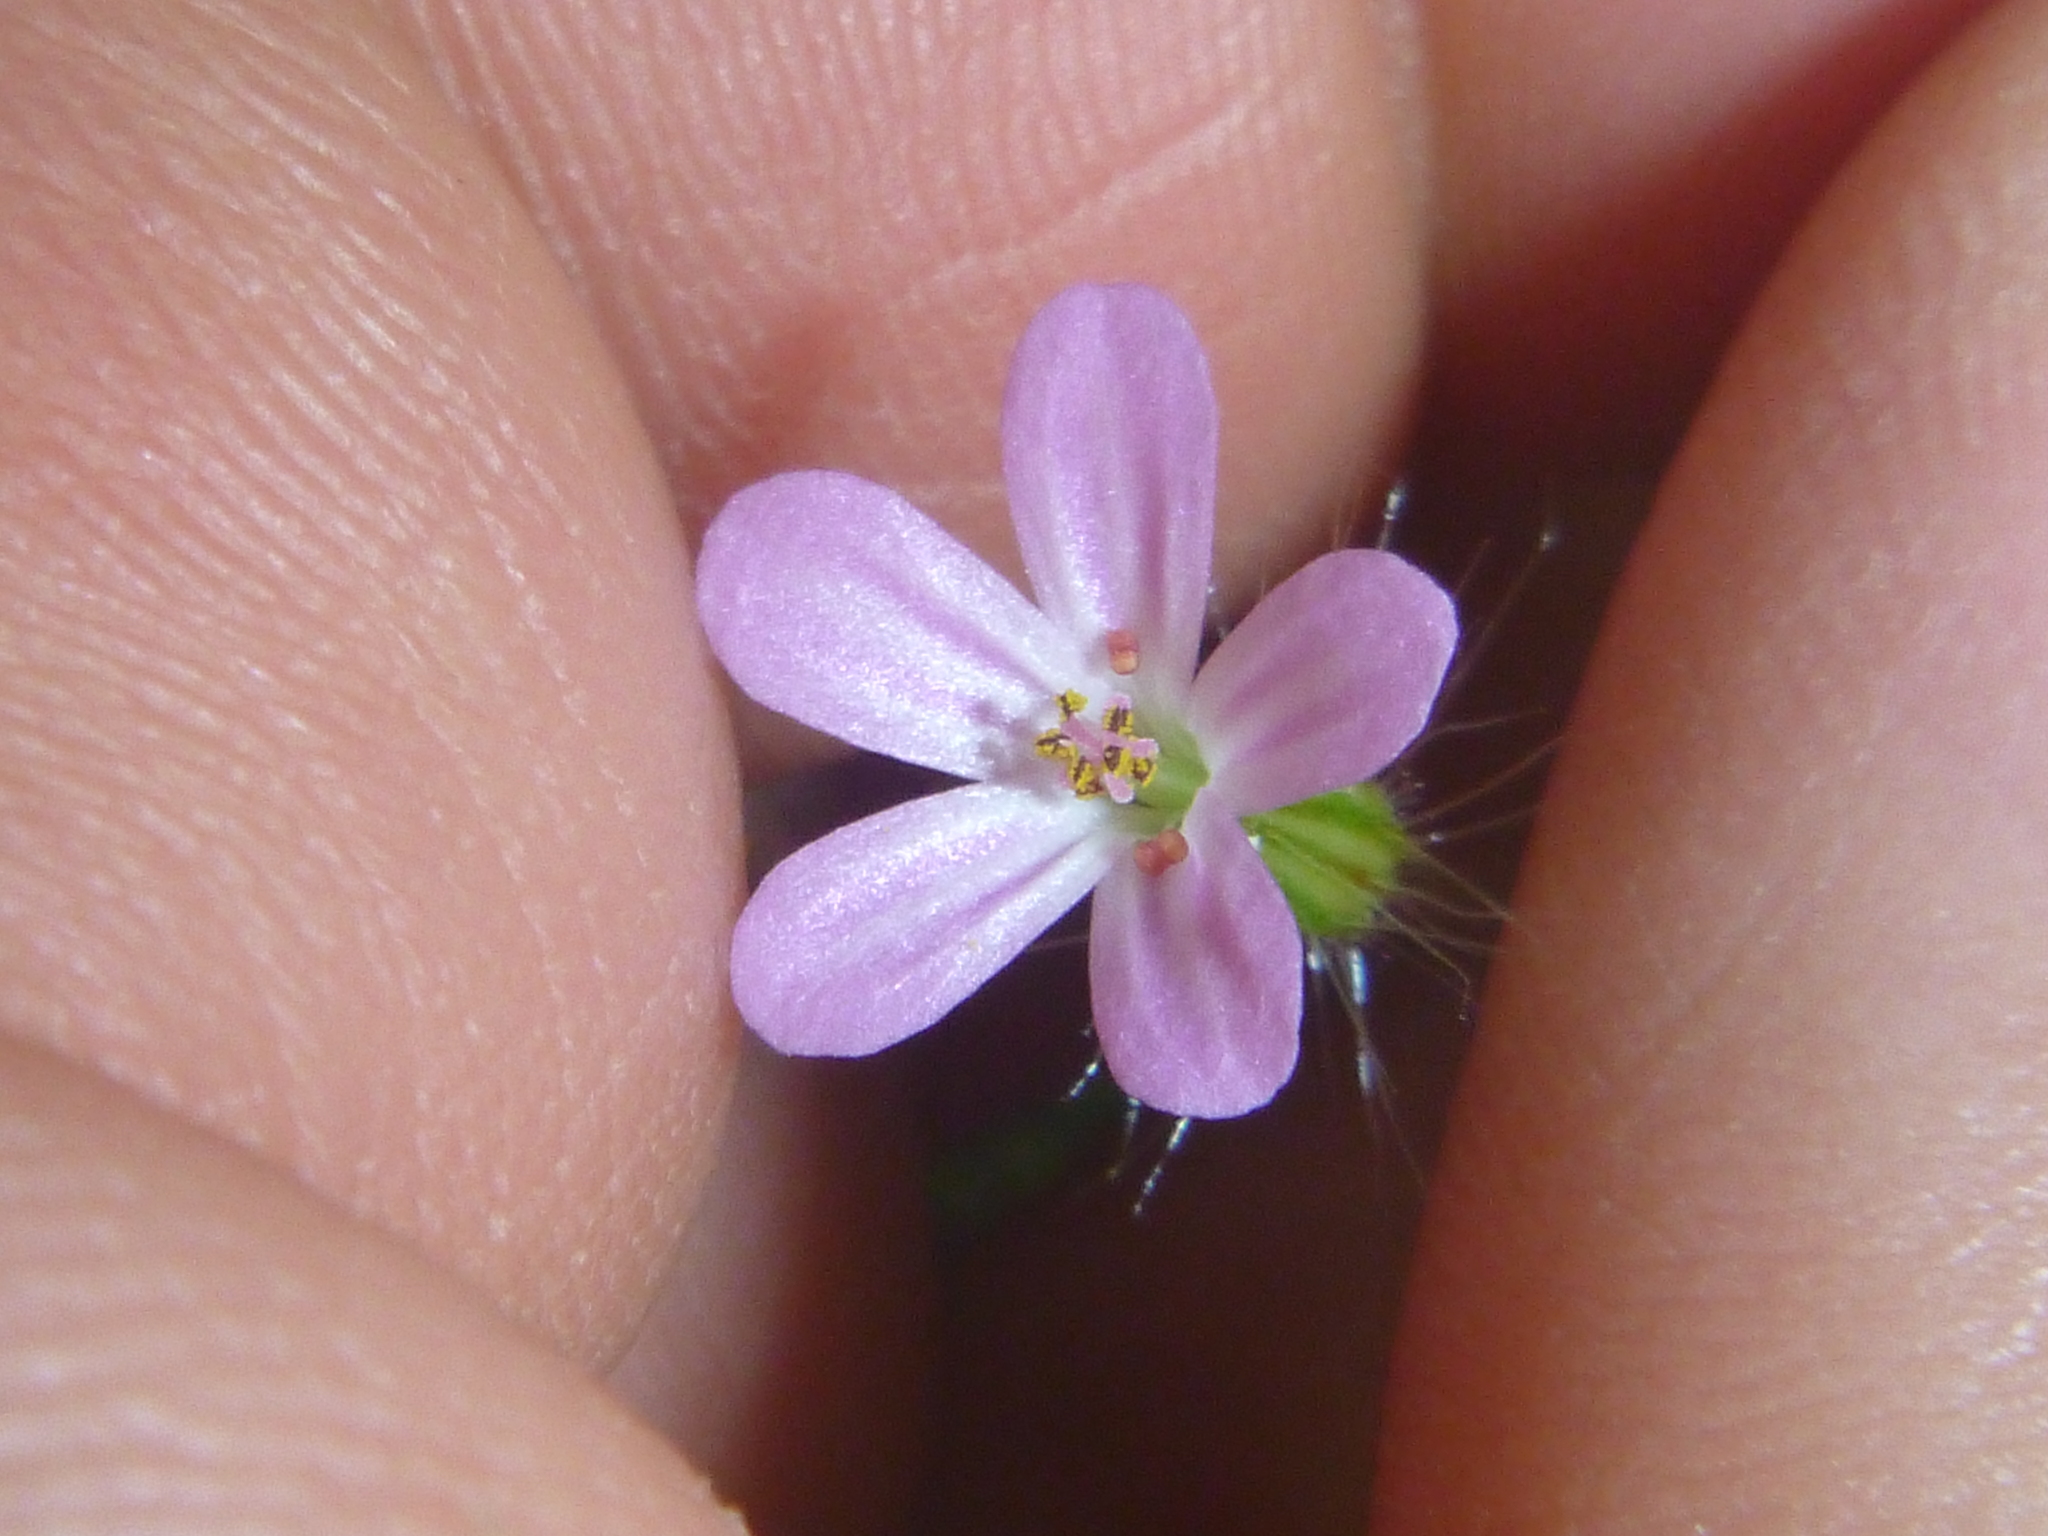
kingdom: Plantae
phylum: Tracheophyta
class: Magnoliopsida
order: Geraniales
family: Geraniaceae
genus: Geranium
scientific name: Geranium robertianum
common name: Herb-robert
